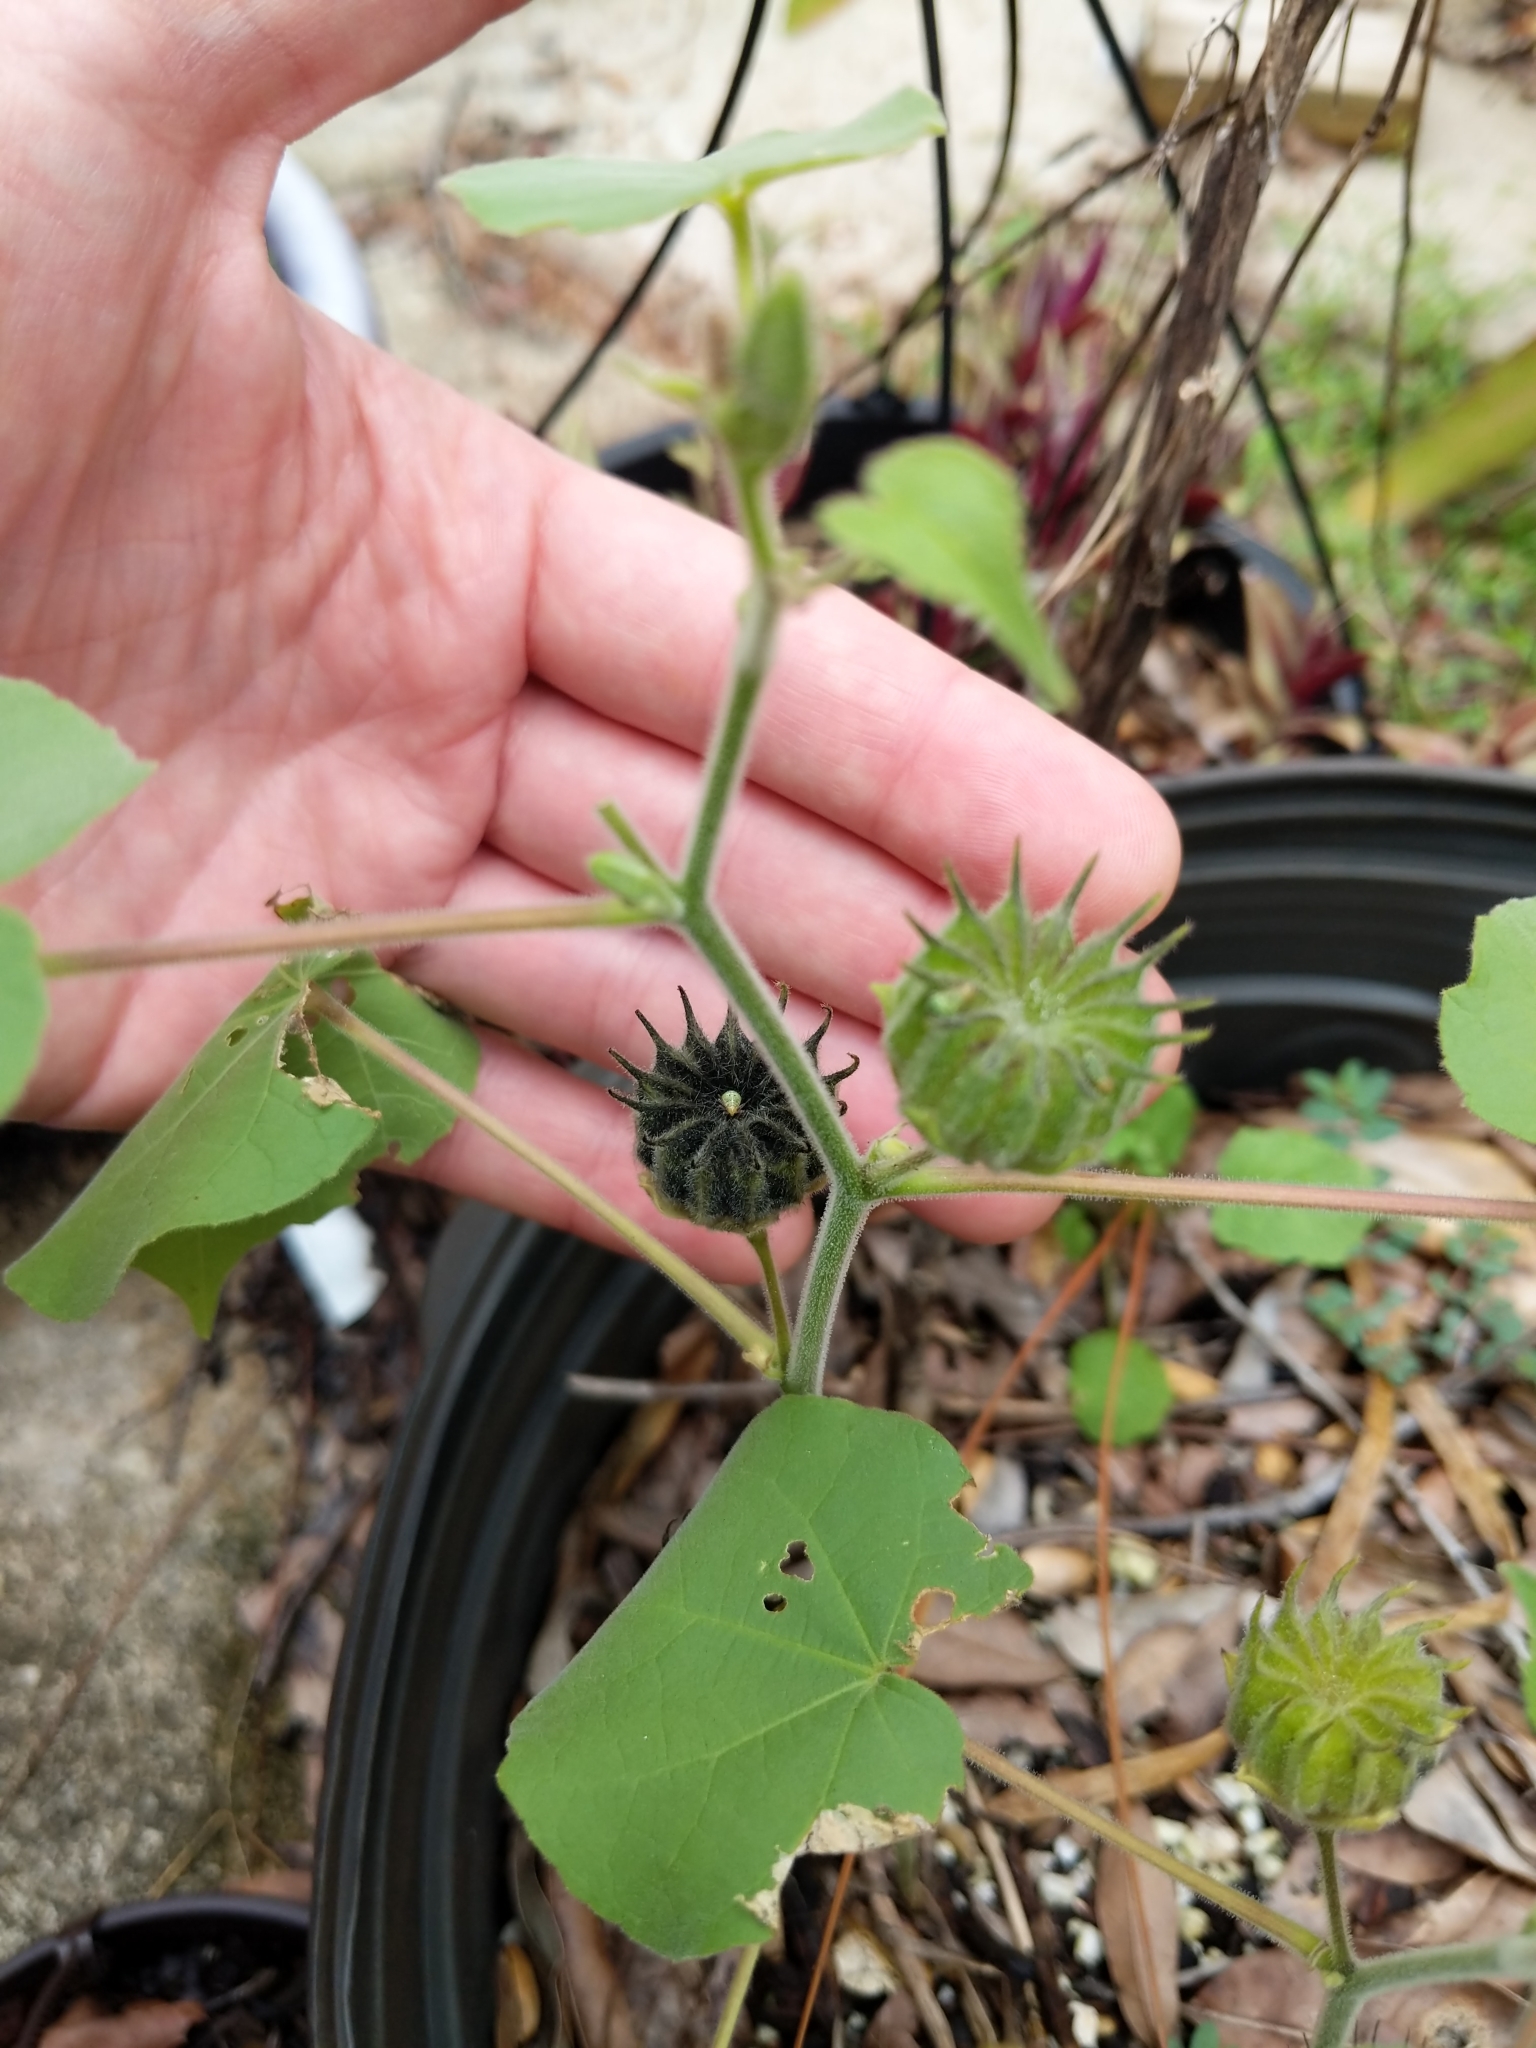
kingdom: Plantae
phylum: Tracheophyta
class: Magnoliopsida
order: Malvales
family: Malvaceae
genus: Abutilon
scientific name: Abutilon theophrasti
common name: Velvetleaf
